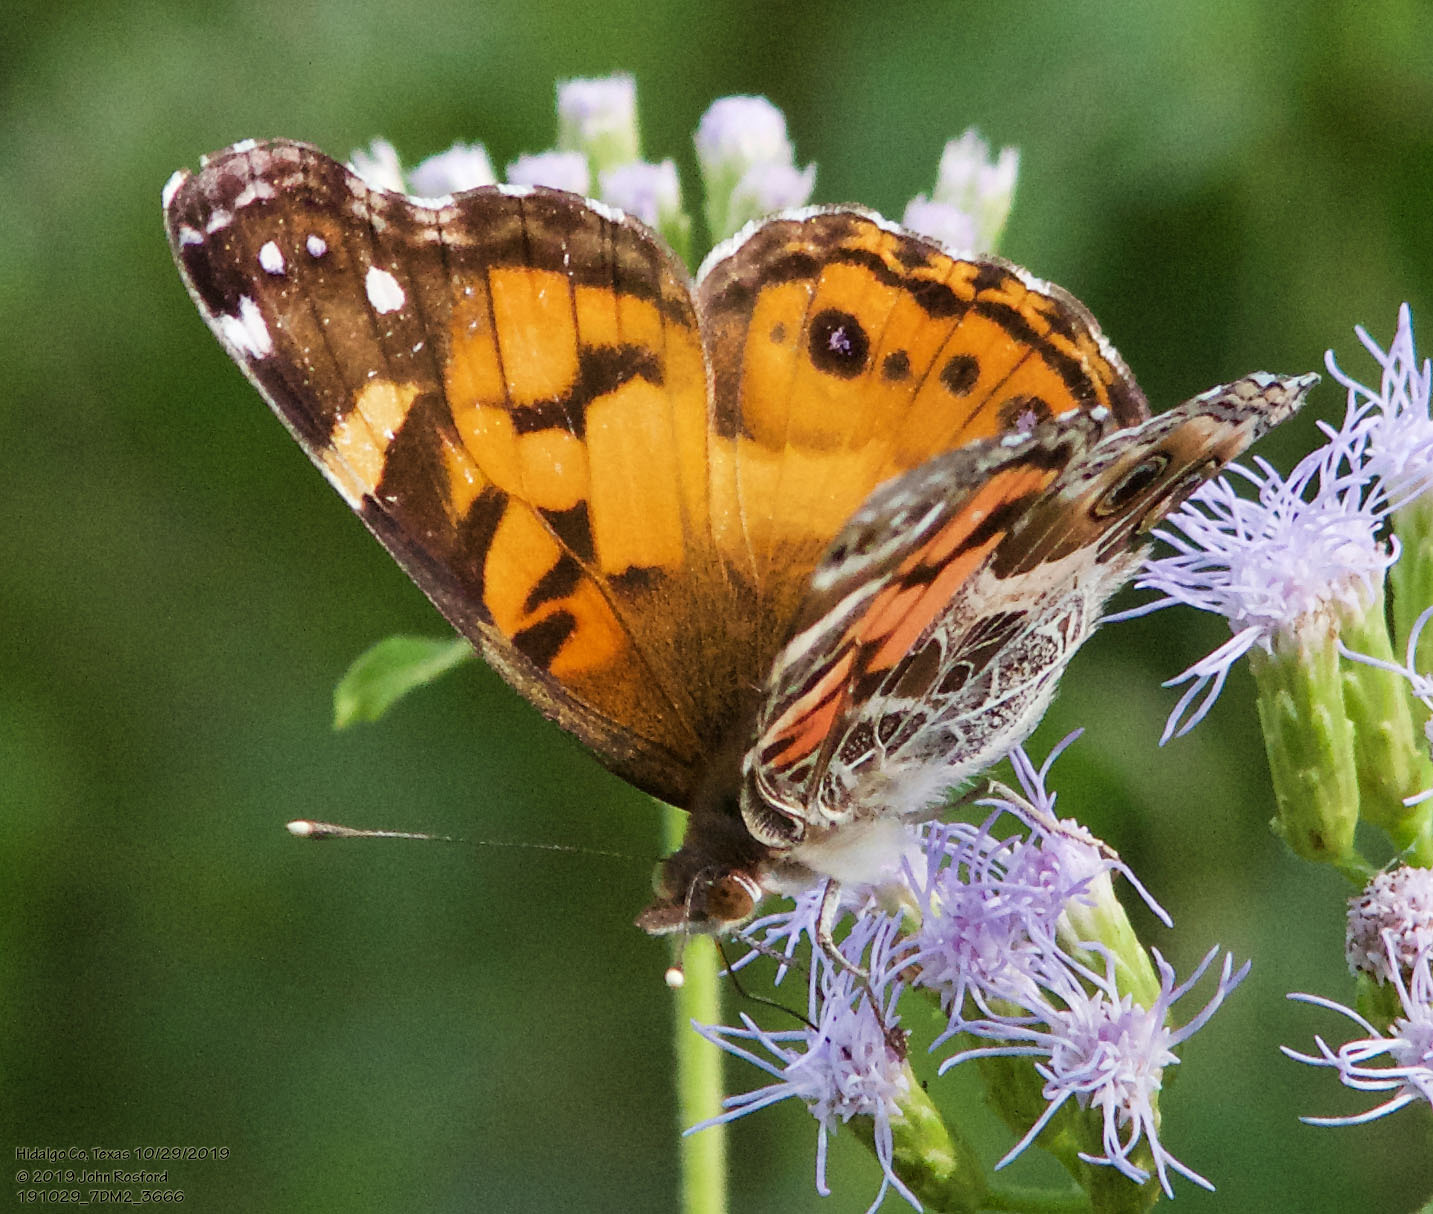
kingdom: Animalia
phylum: Arthropoda
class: Insecta
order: Lepidoptera
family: Nymphalidae
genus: Vanessa
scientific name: Vanessa virginiensis
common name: American lady
